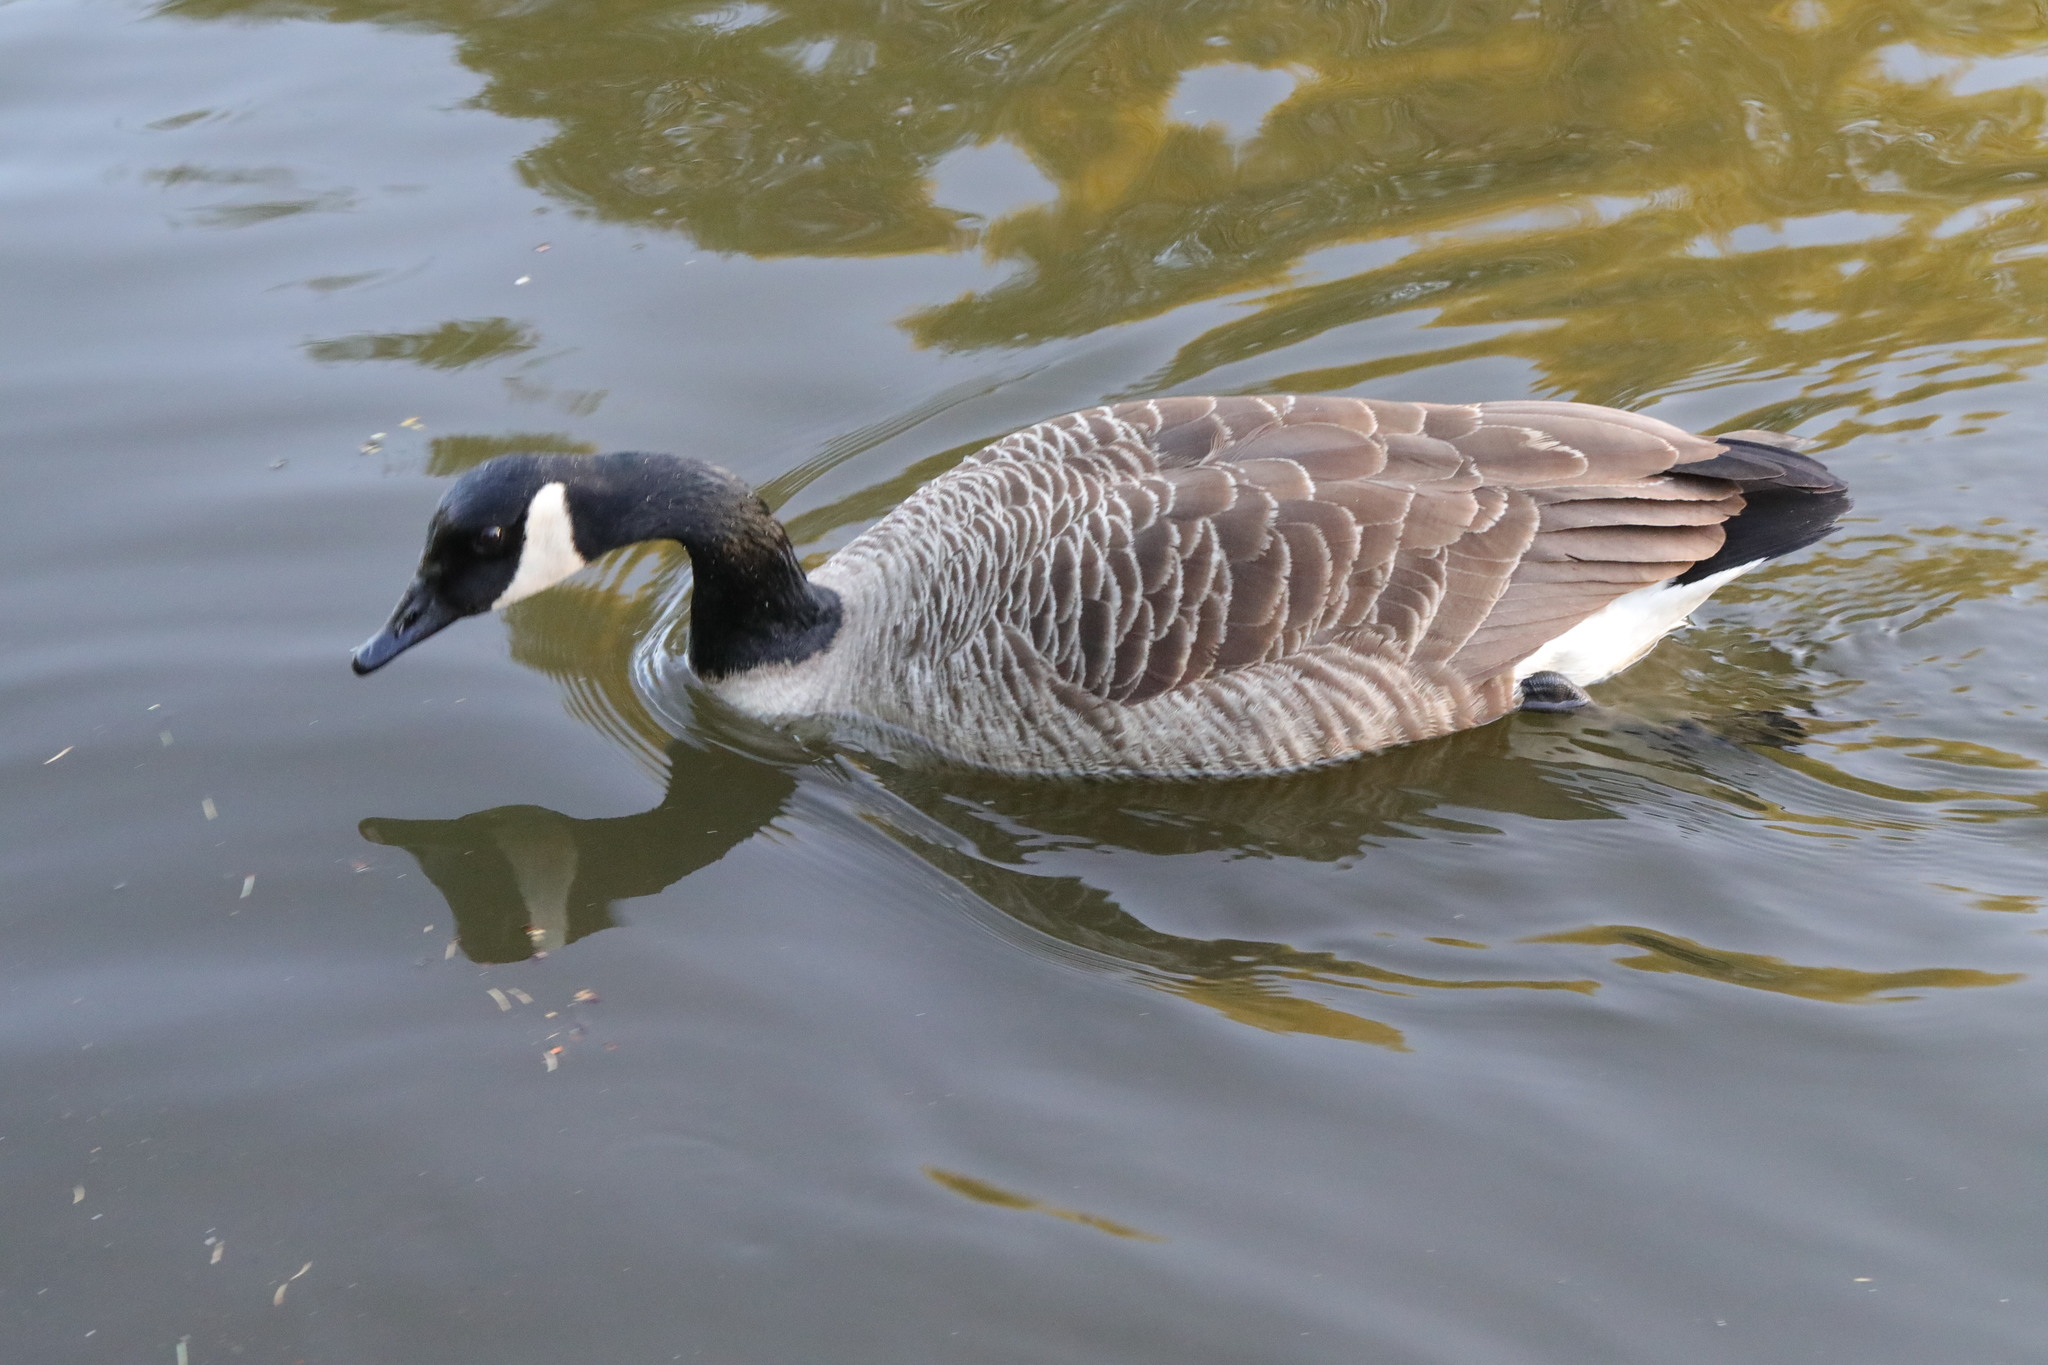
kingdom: Animalia
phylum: Chordata
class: Aves
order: Anseriformes
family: Anatidae
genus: Branta
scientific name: Branta canadensis
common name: Canada goose
